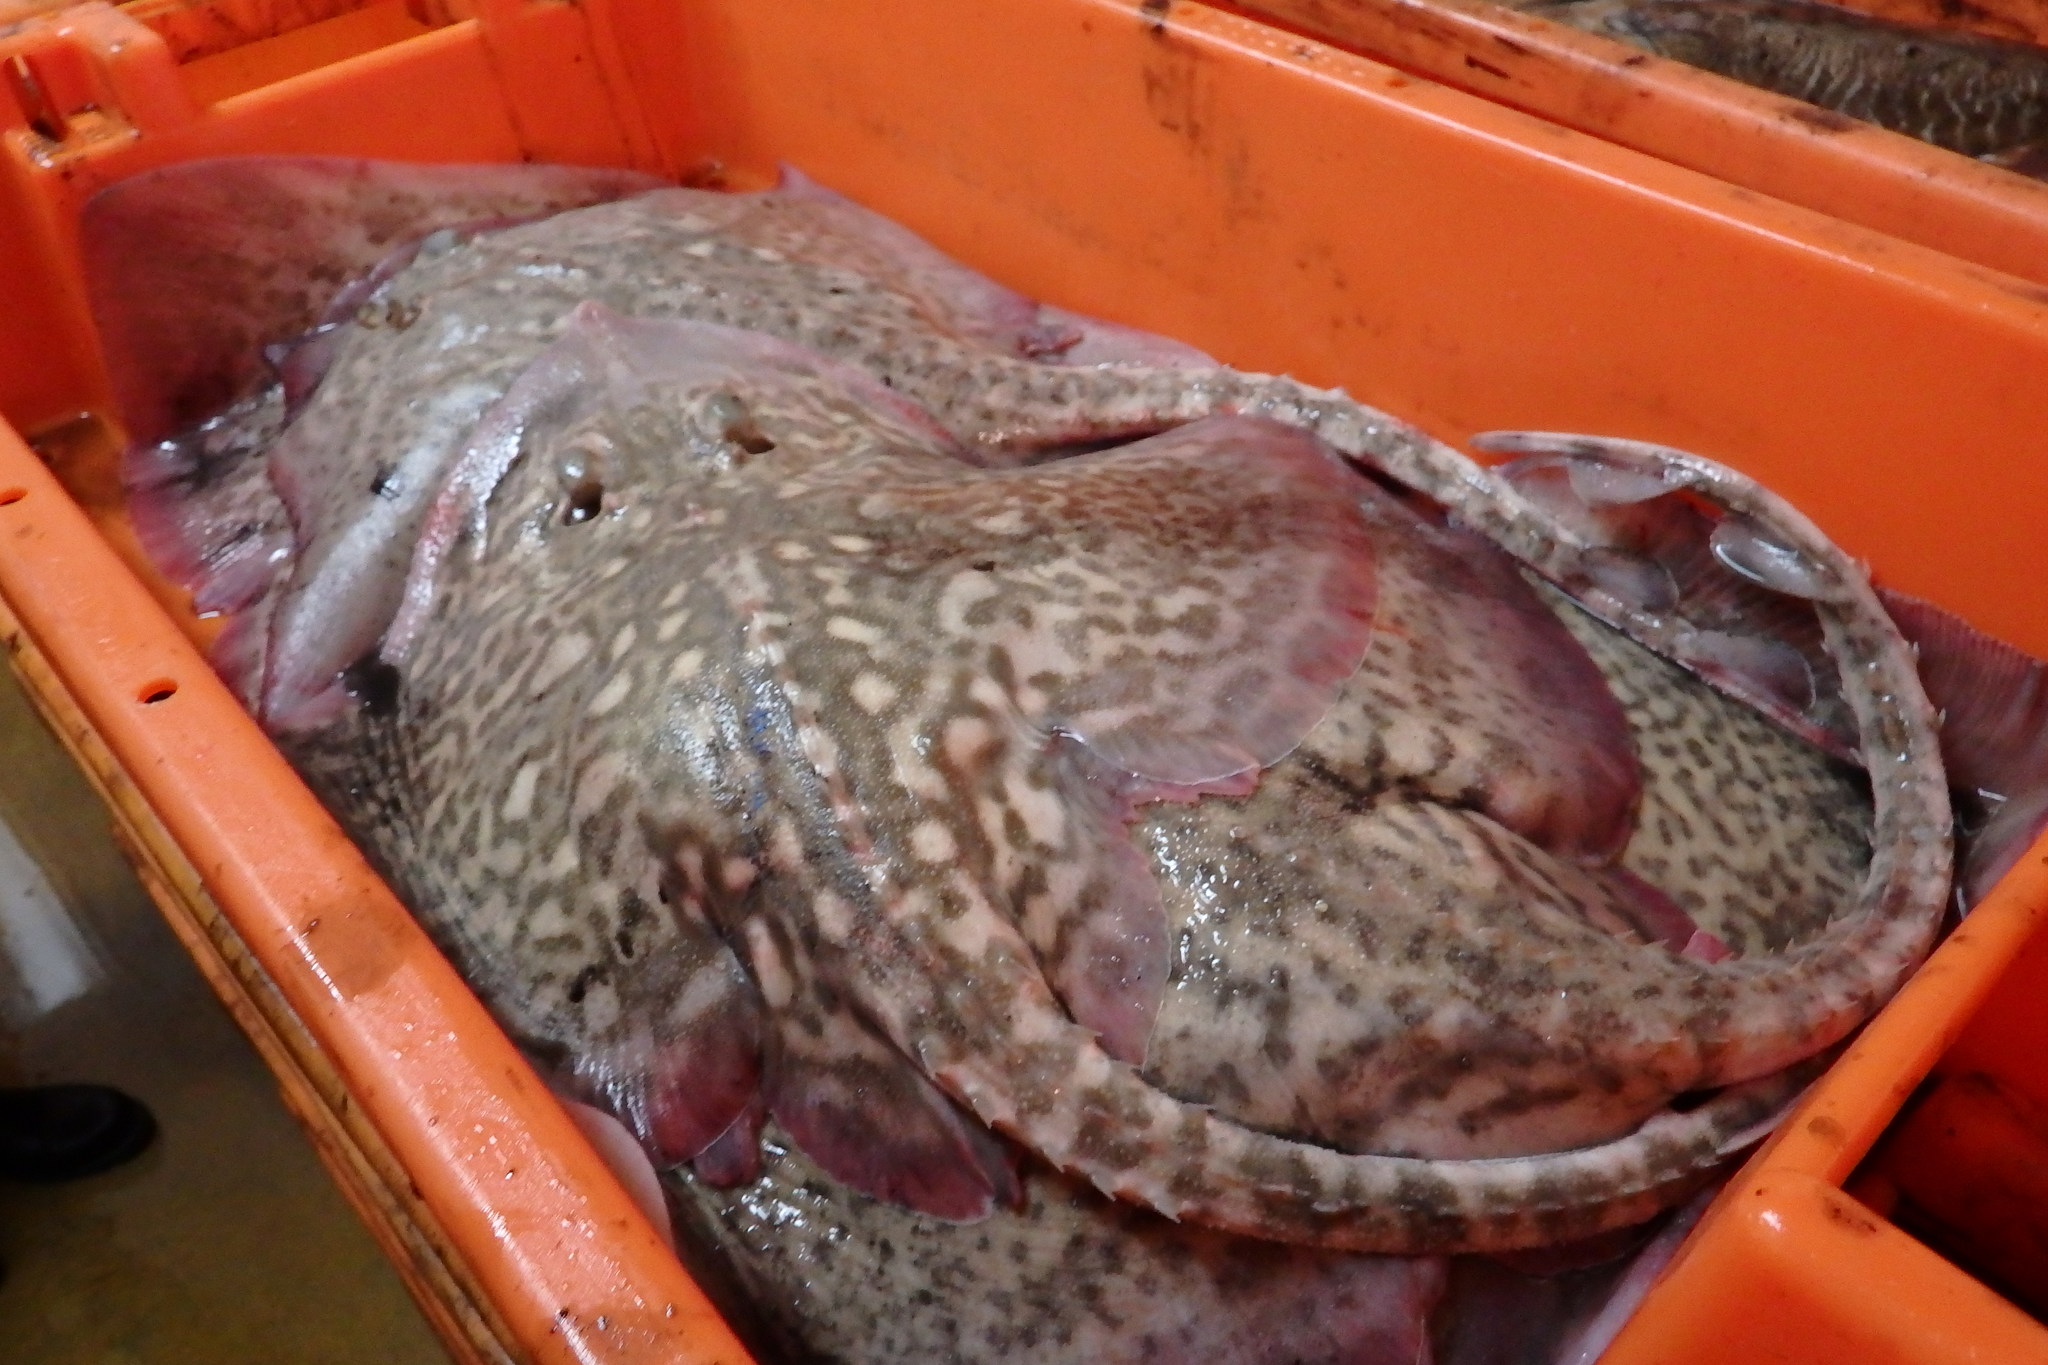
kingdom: Animalia
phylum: Chordata
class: Elasmobranchii
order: Rajiformes
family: Rajidae
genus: Raja
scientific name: Raja clavata
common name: Thornback ray
